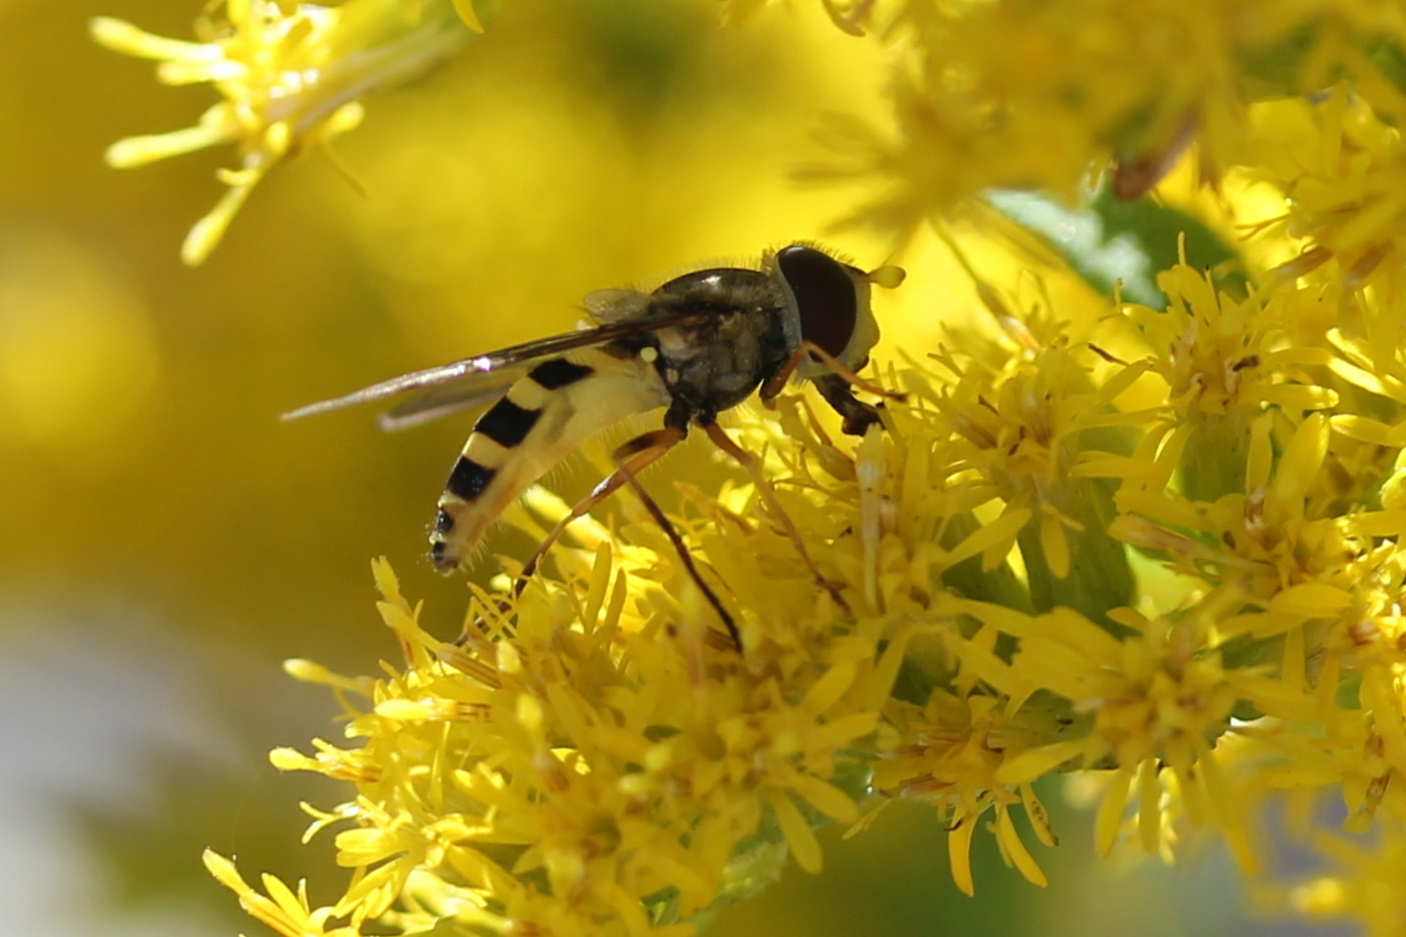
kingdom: Animalia
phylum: Arthropoda
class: Insecta
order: Diptera
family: Syrphidae
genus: Syrphus
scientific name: Syrphus rectus
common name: Yellow-legged flower fly
